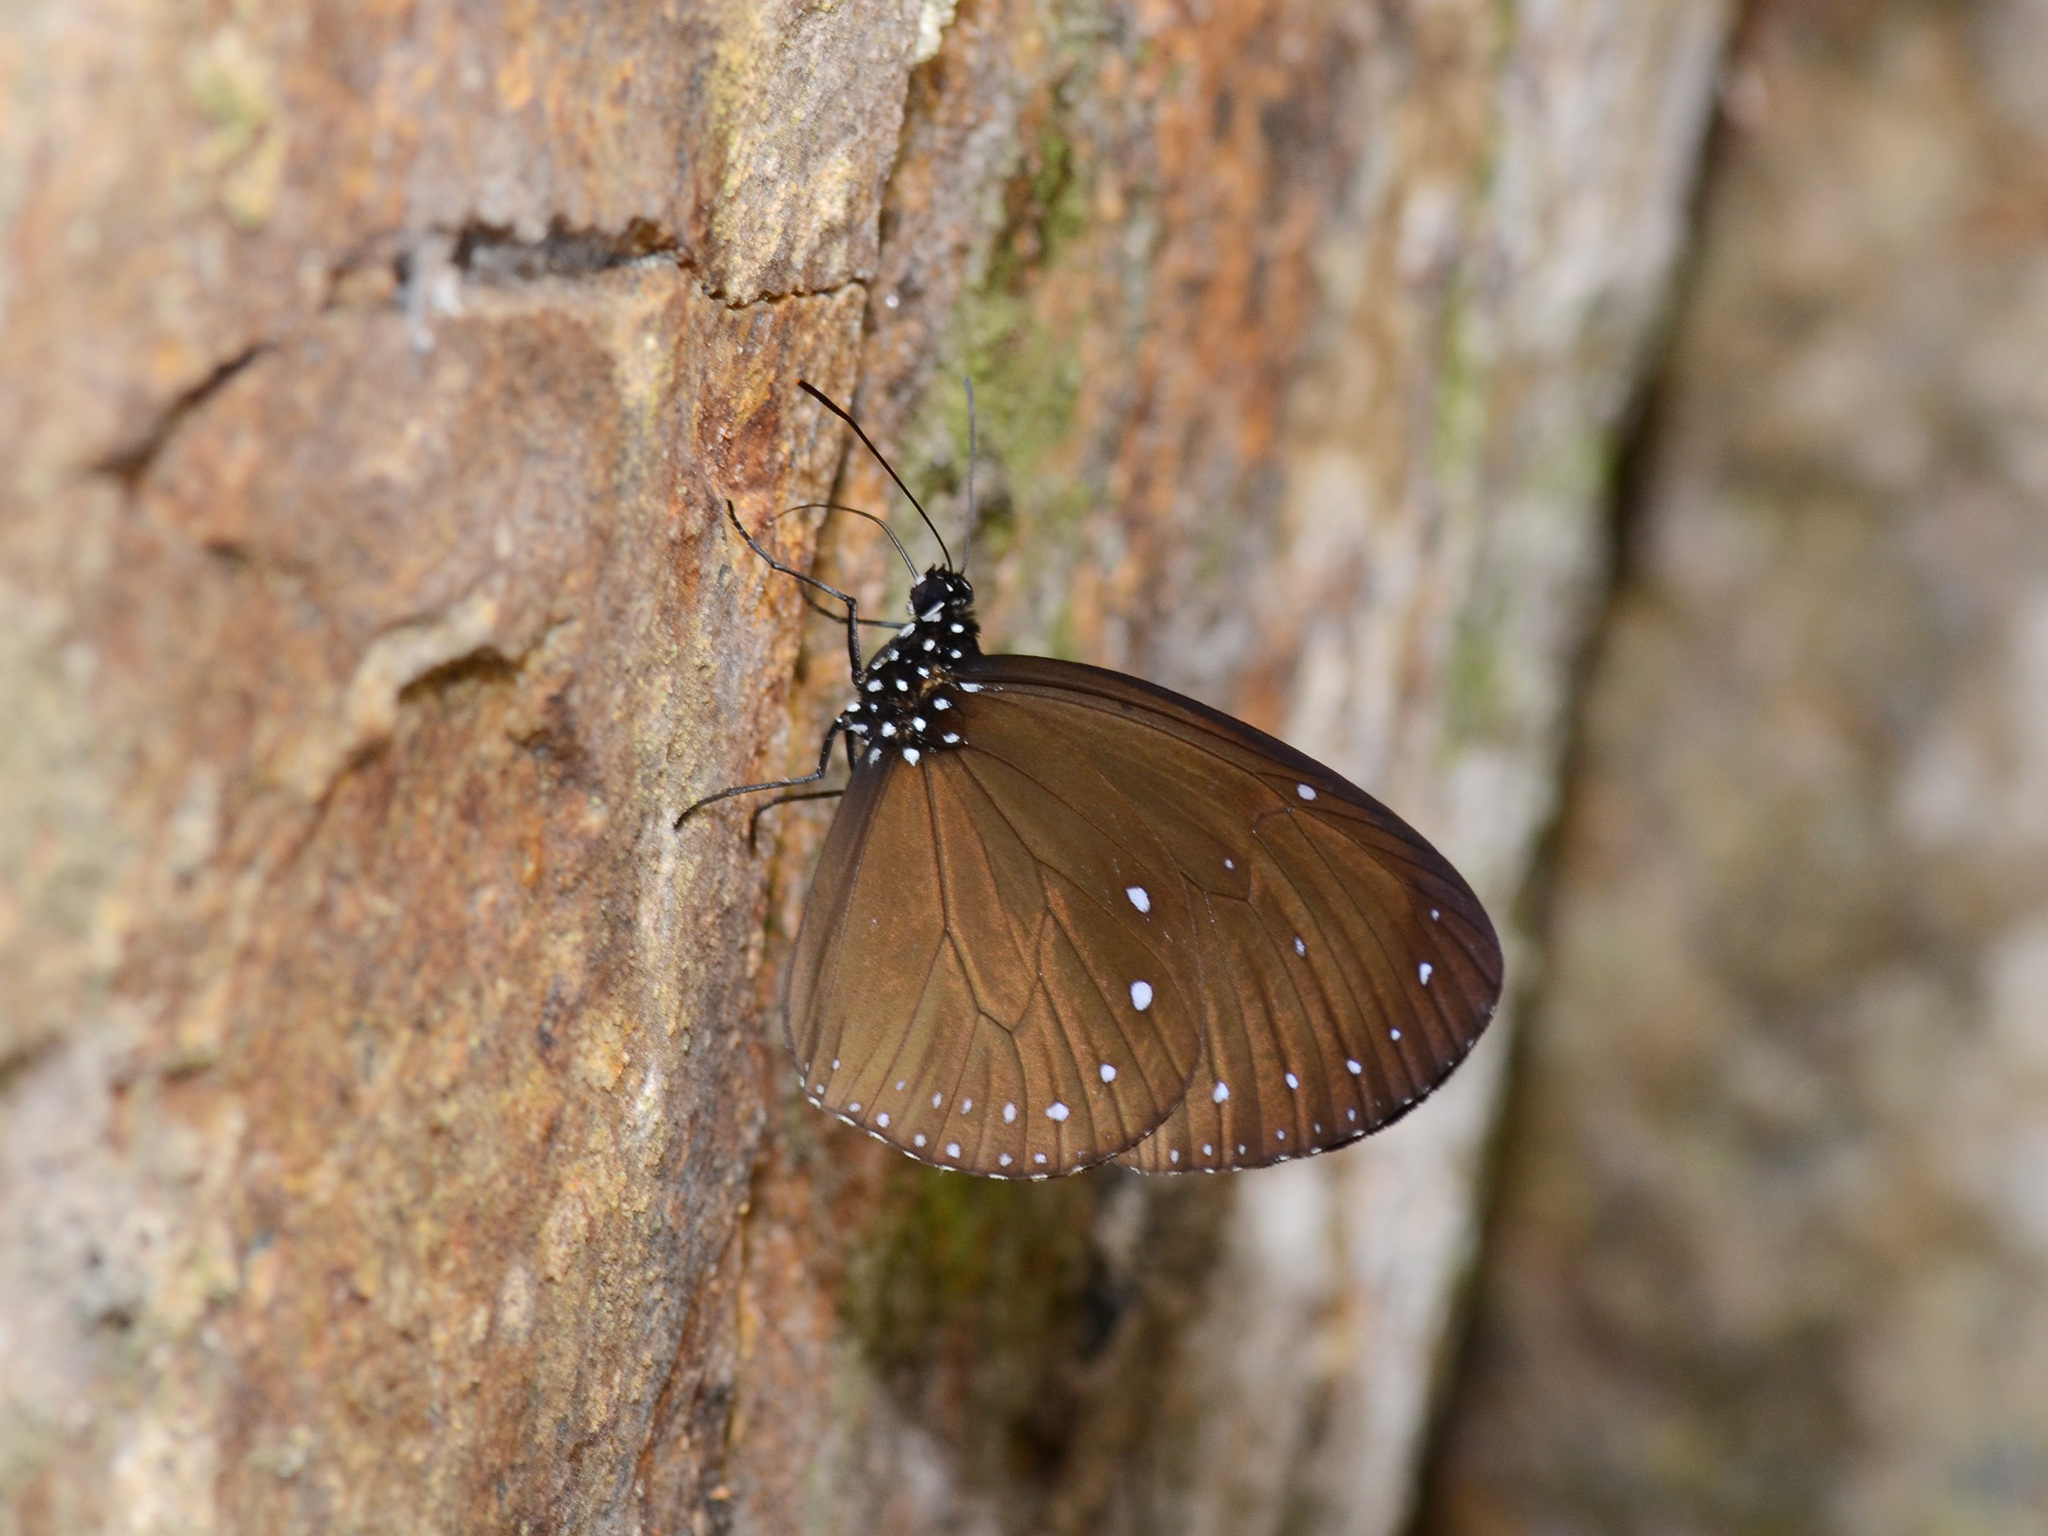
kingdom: Animalia
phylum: Arthropoda
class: Insecta
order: Lepidoptera
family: Nymphalidae
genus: Euploea
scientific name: Euploea tulliolus
